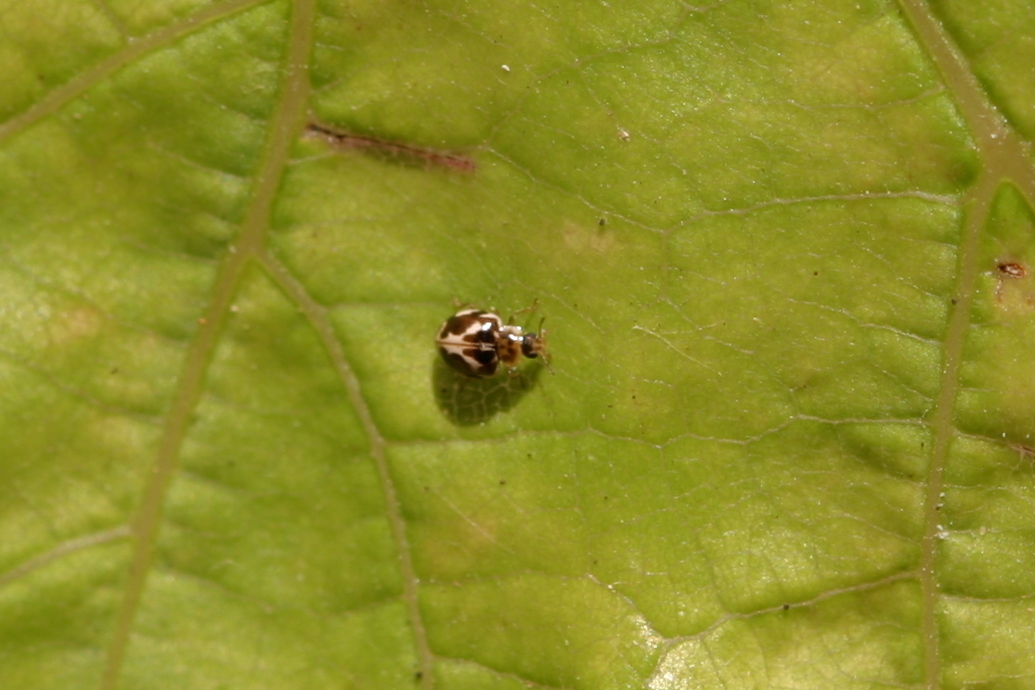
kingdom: Animalia
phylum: Arthropoda
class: Insecta
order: Coleoptera
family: Coccinellidae
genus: Psyllobora
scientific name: Psyllobora vigintimaculata
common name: Ladybird beetle
